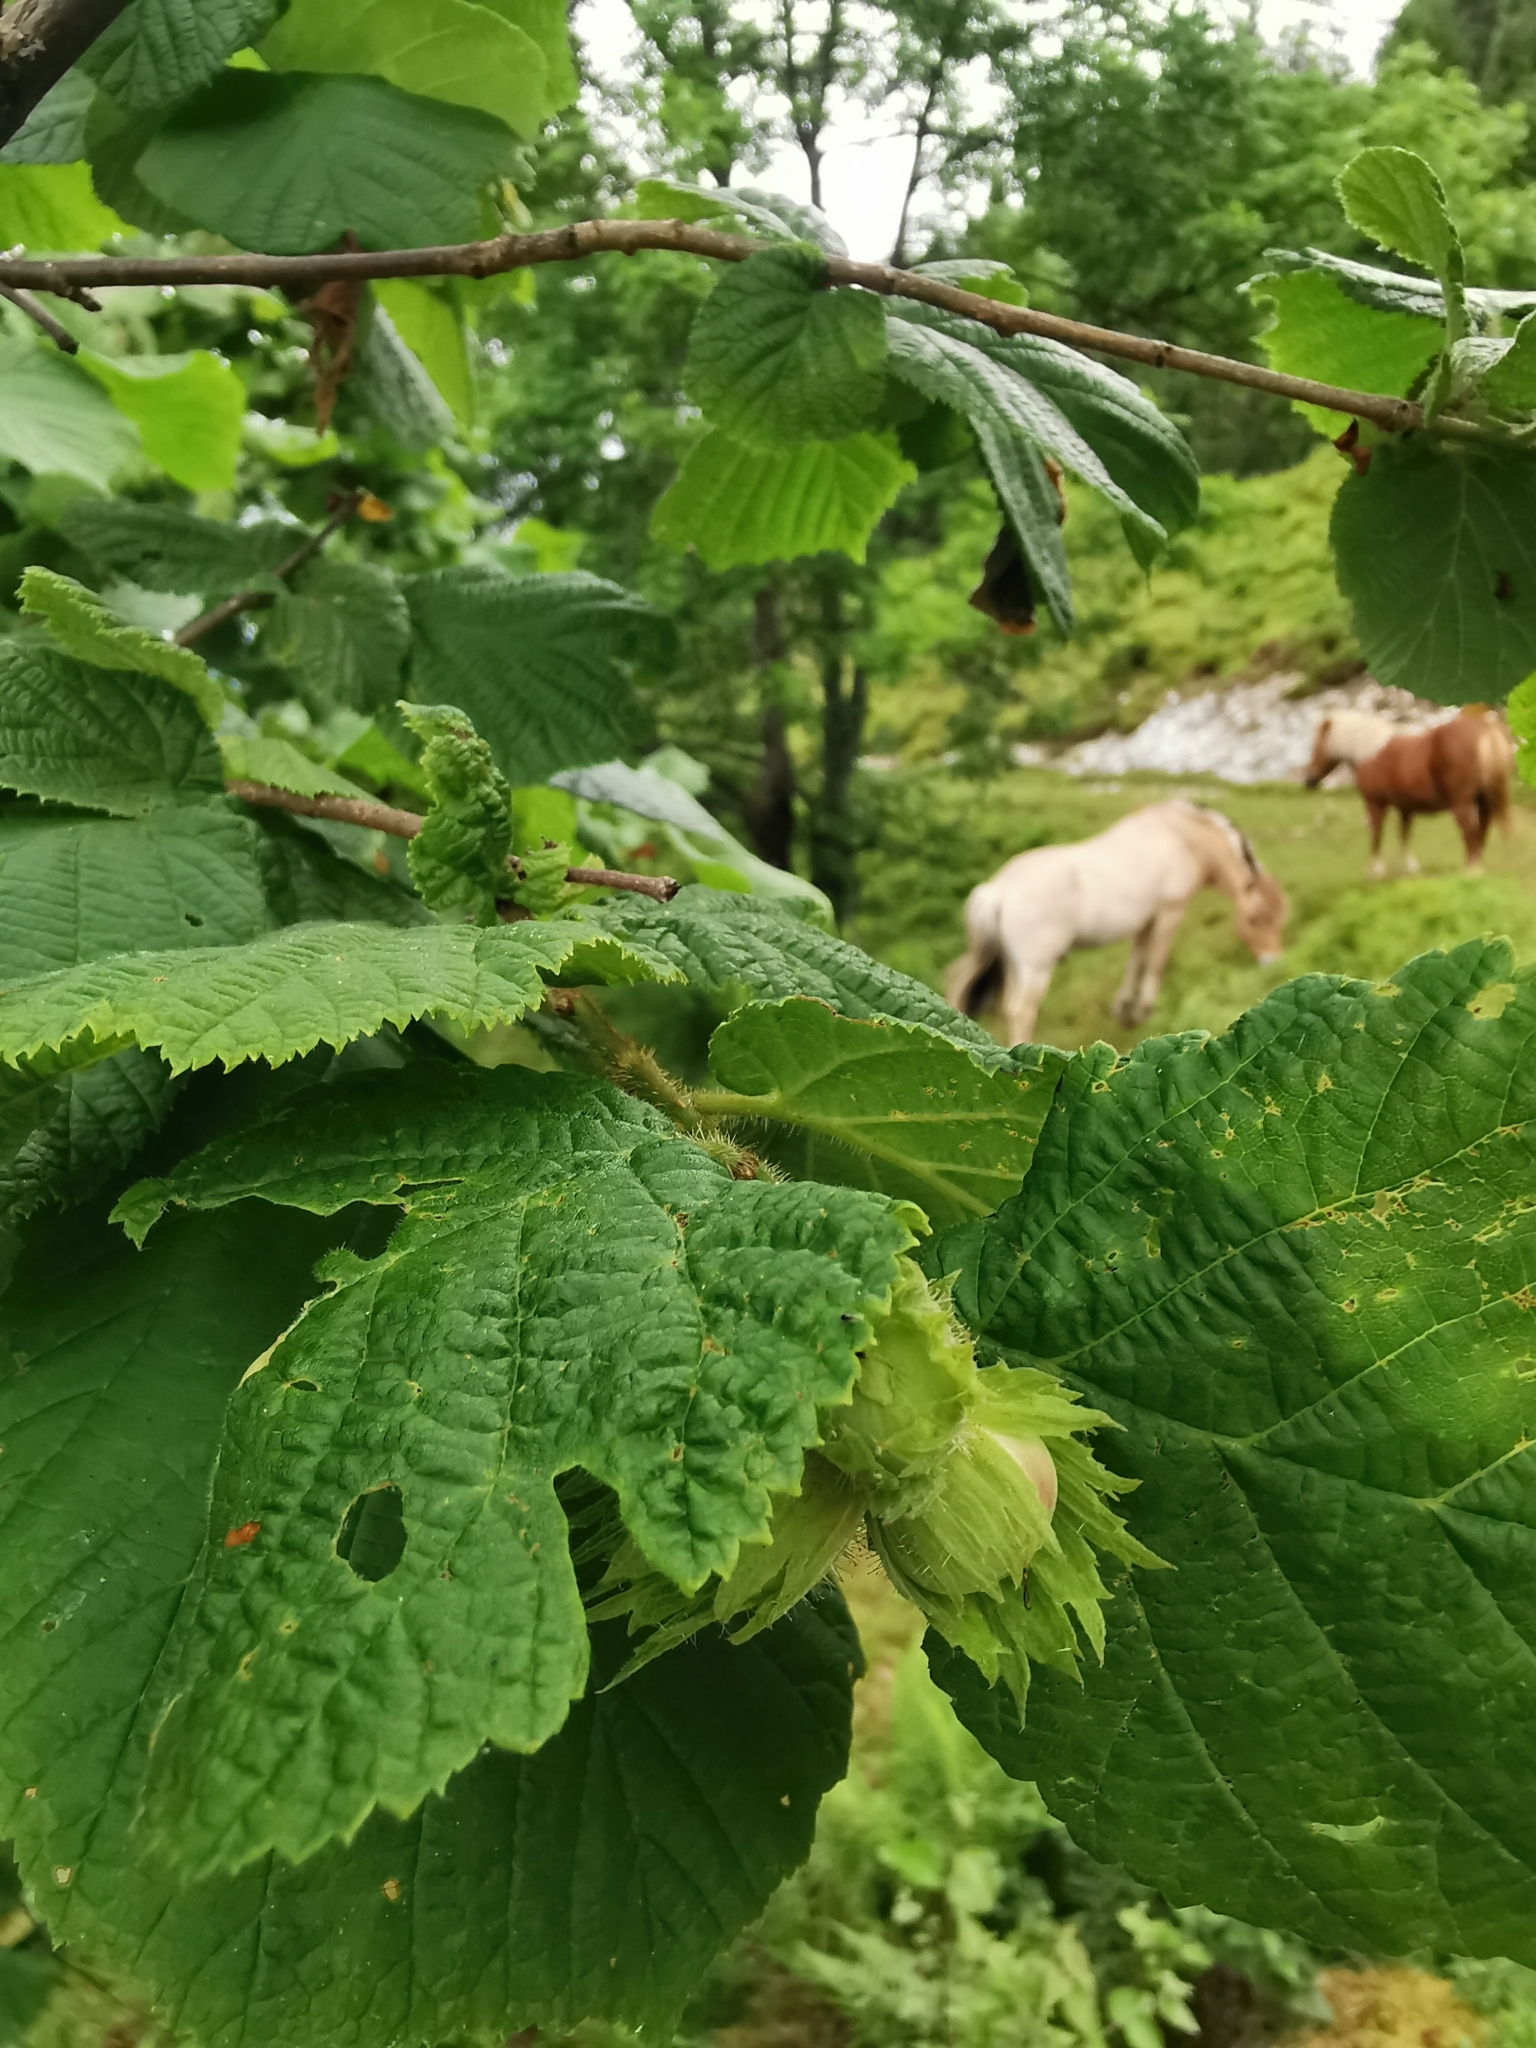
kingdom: Plantae
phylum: Tracheophyta
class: Magnoliopsida
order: Fagales
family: Betulaceae
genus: Corylus
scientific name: Corylus avellana
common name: European hazel
